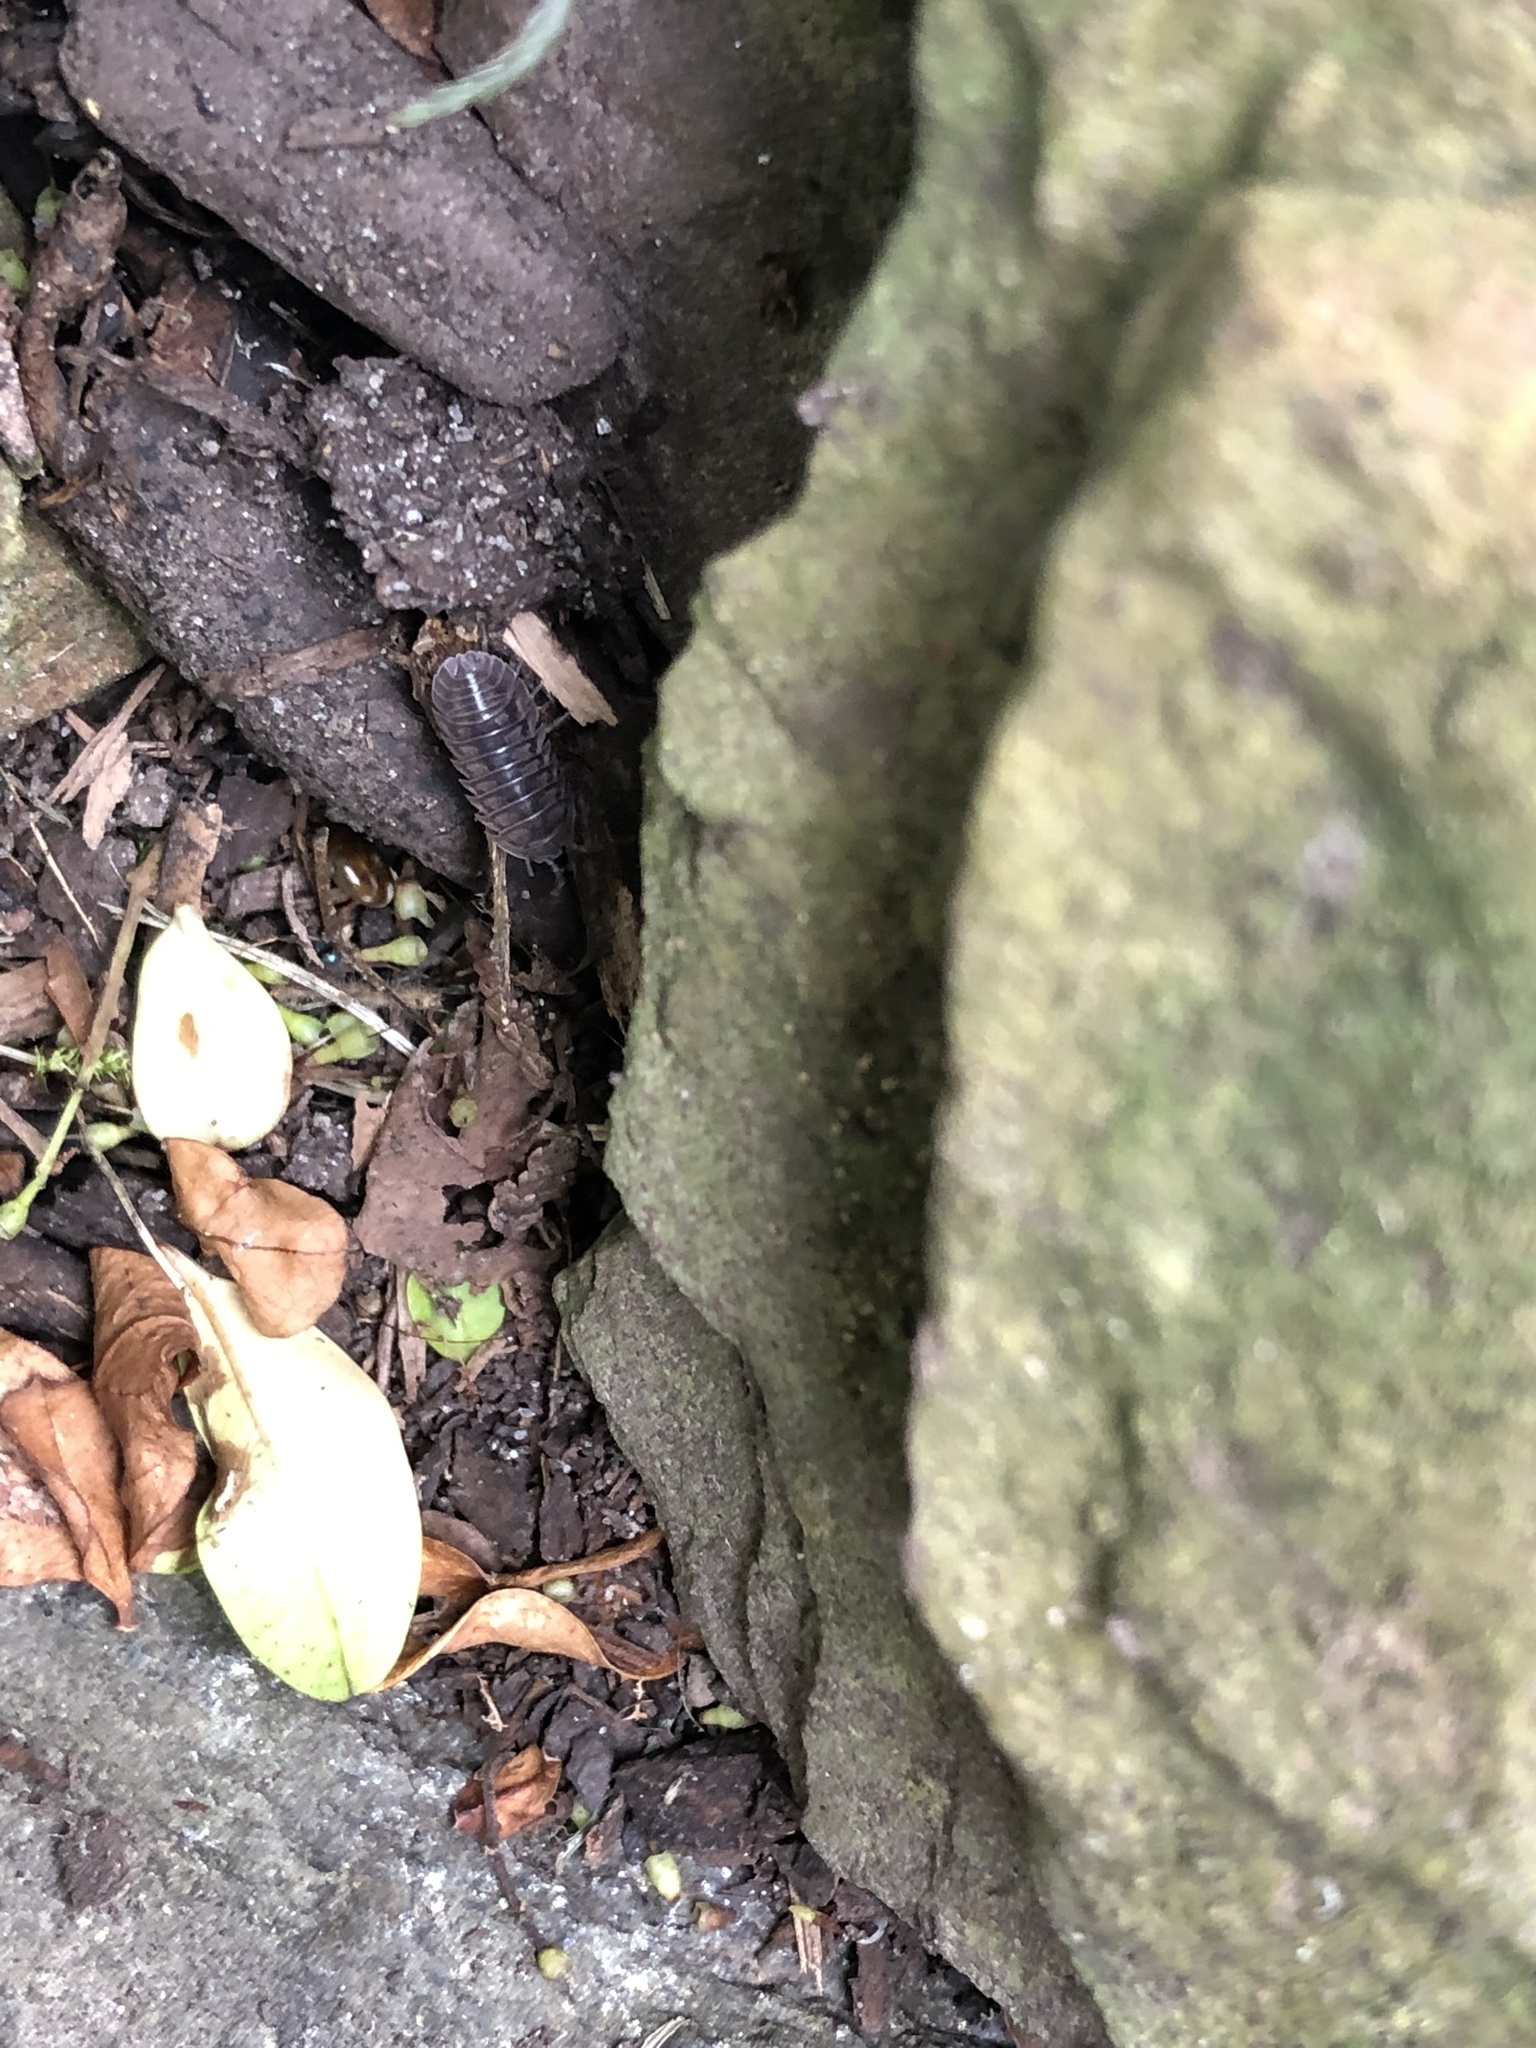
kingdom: Animalia
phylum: Arthropoda
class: Malacostraca
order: Isopoda
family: Armadillidiidae
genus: Armadillidium
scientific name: Armadillidium nasatum
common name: Isopod
